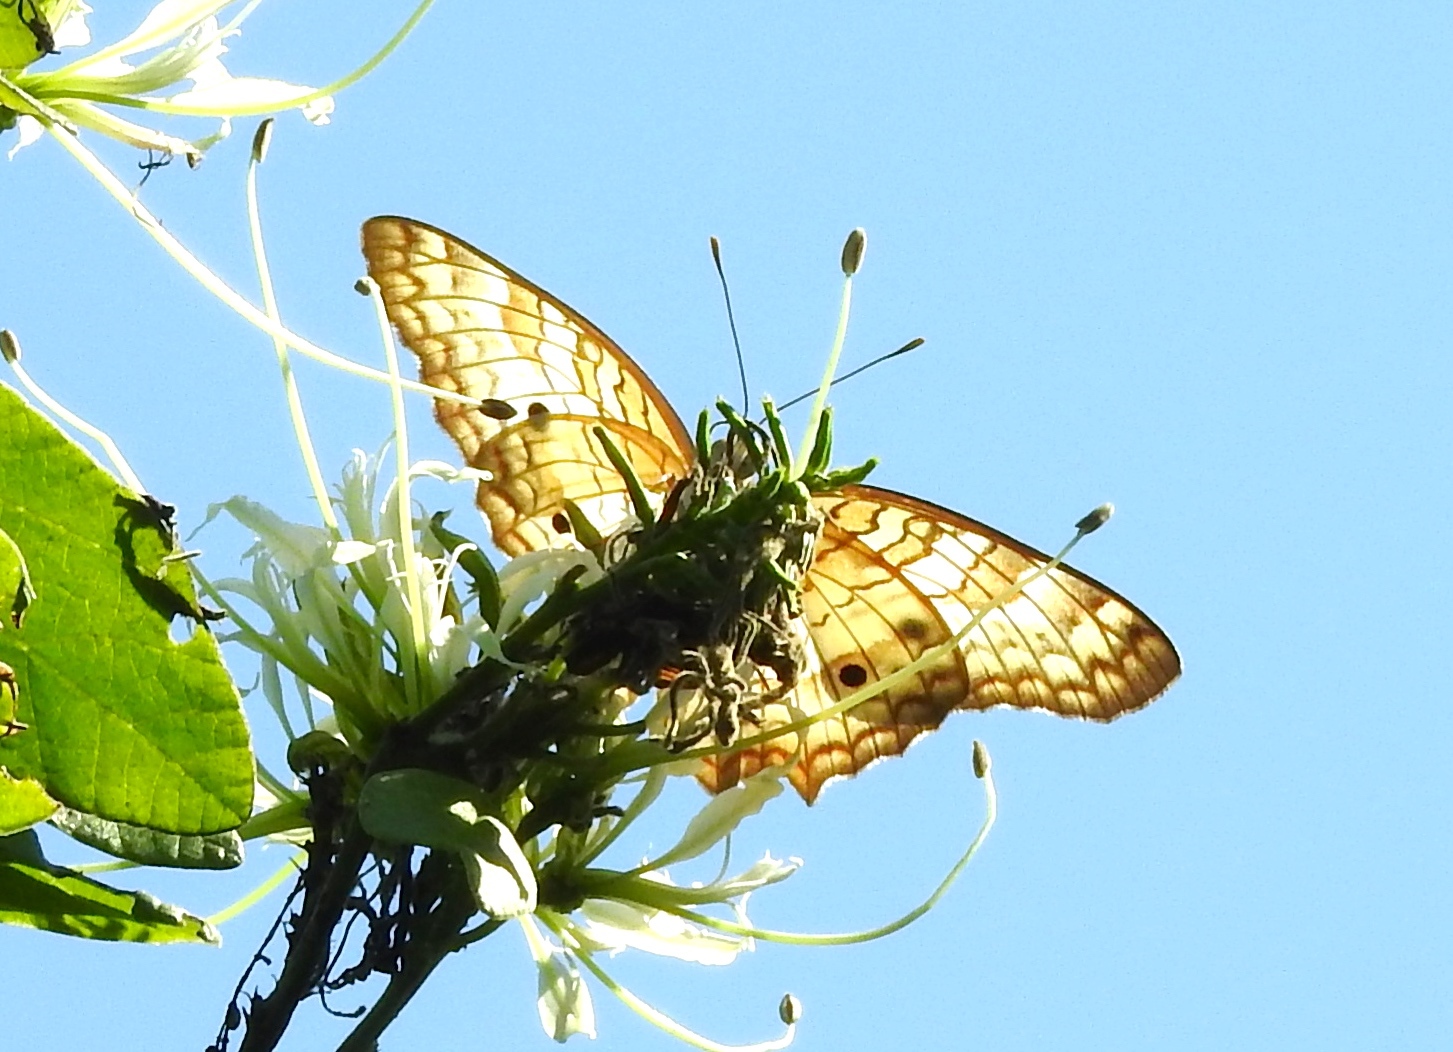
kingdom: Animalia
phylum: Arthropoda
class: Insecta
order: Lepidoptera
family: Nymphalidae
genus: Anartia
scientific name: Anartia jatrophae
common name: White peacock
